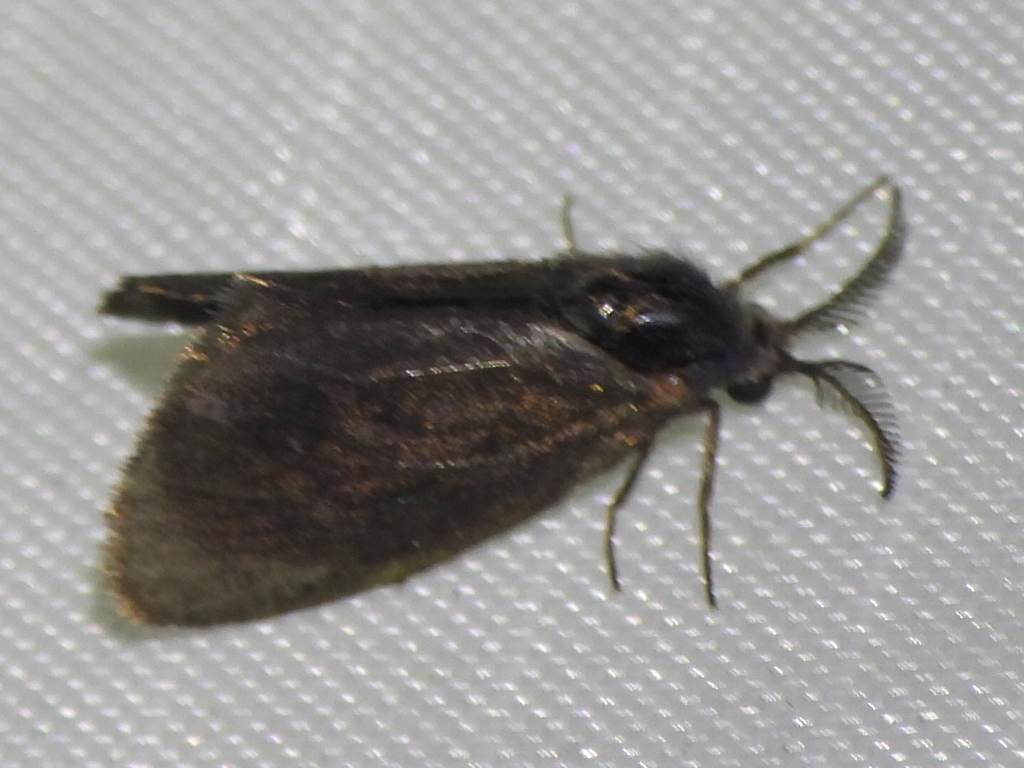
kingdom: Animalia
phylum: Arthropoda
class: Insecta
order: Lepidoptera
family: Psychidae
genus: Cryptothelea
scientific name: Cryptothelea gloverii
